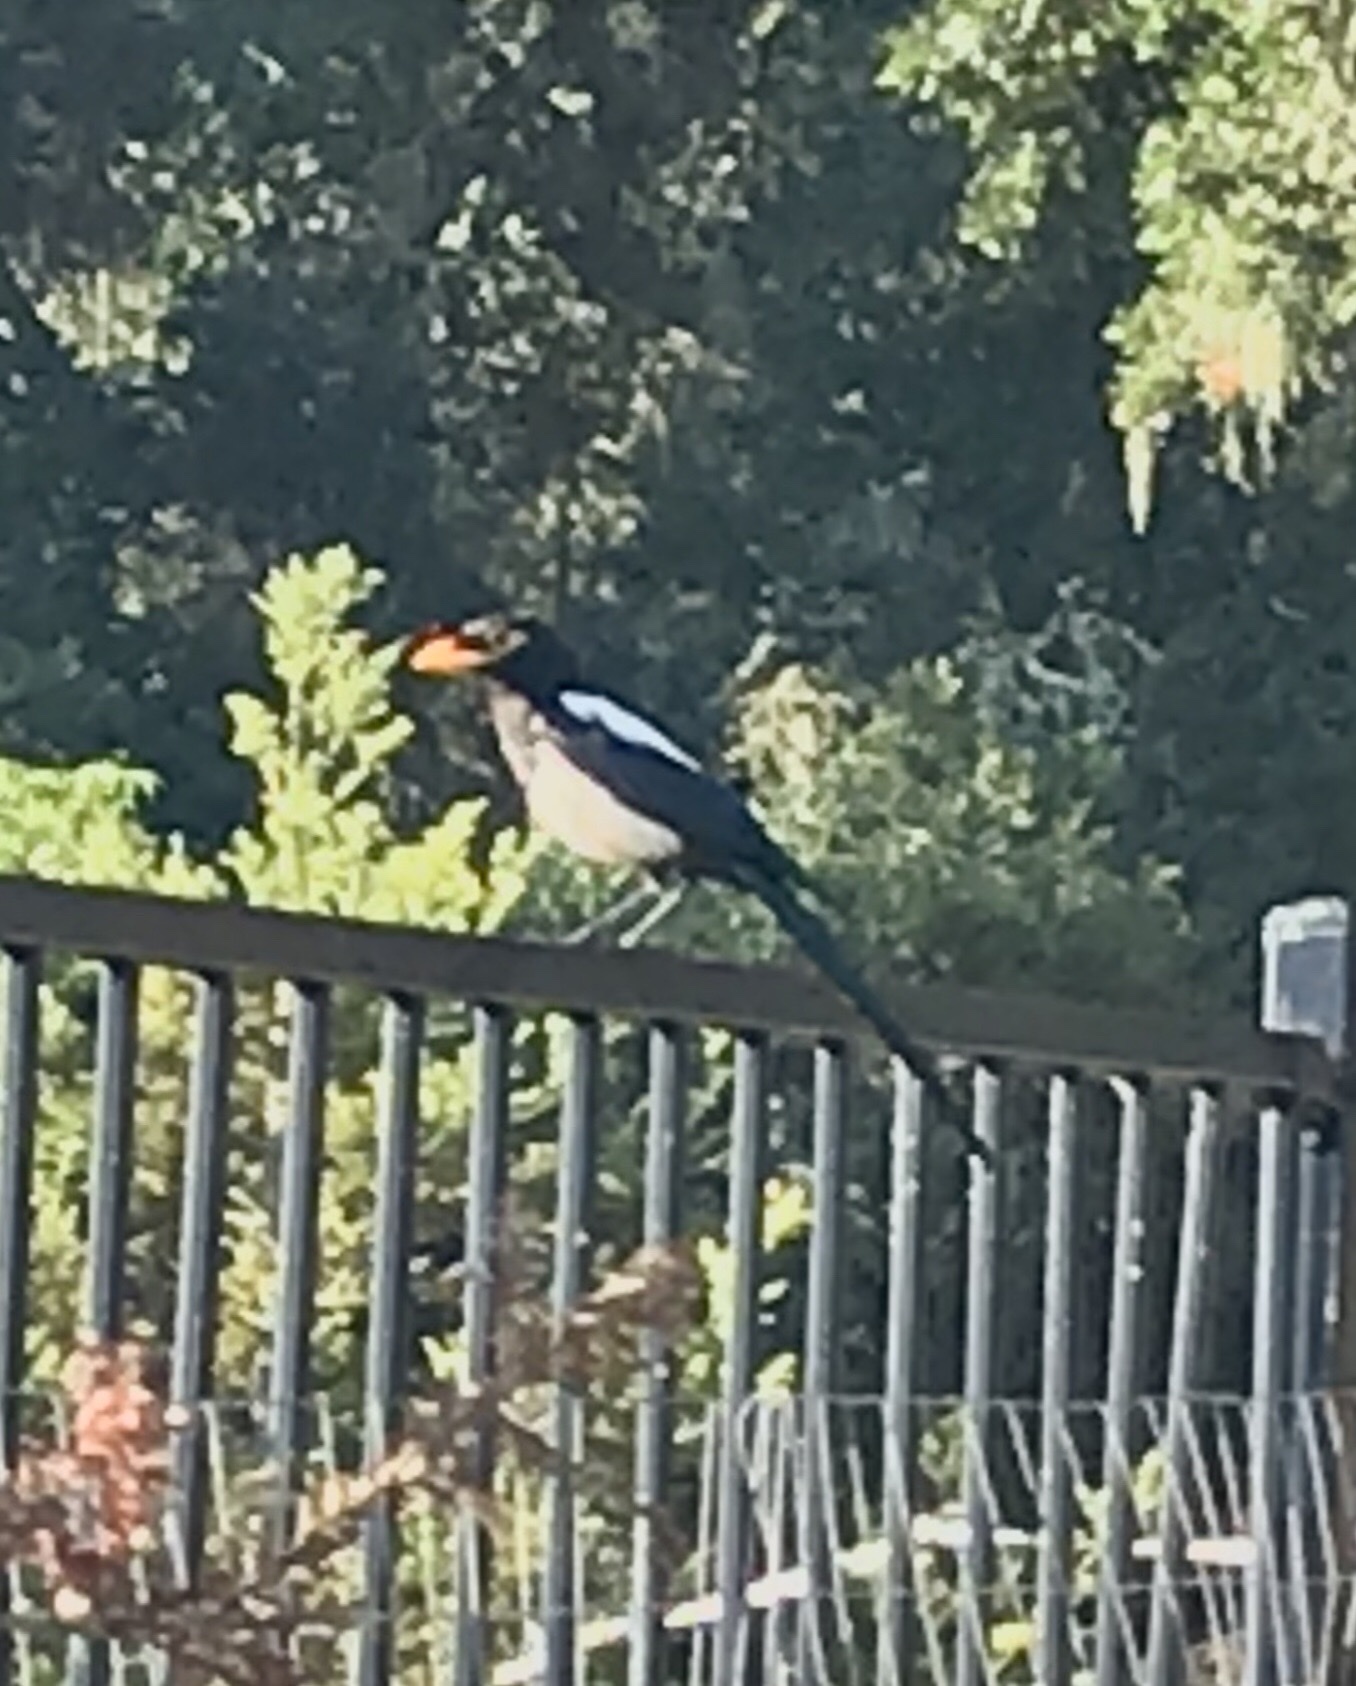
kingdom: Animalia
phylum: Chordata
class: Aves
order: Passeriformes
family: Corvidae
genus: Pica
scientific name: Pica nuttalli
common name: Yellow-billed magpie
